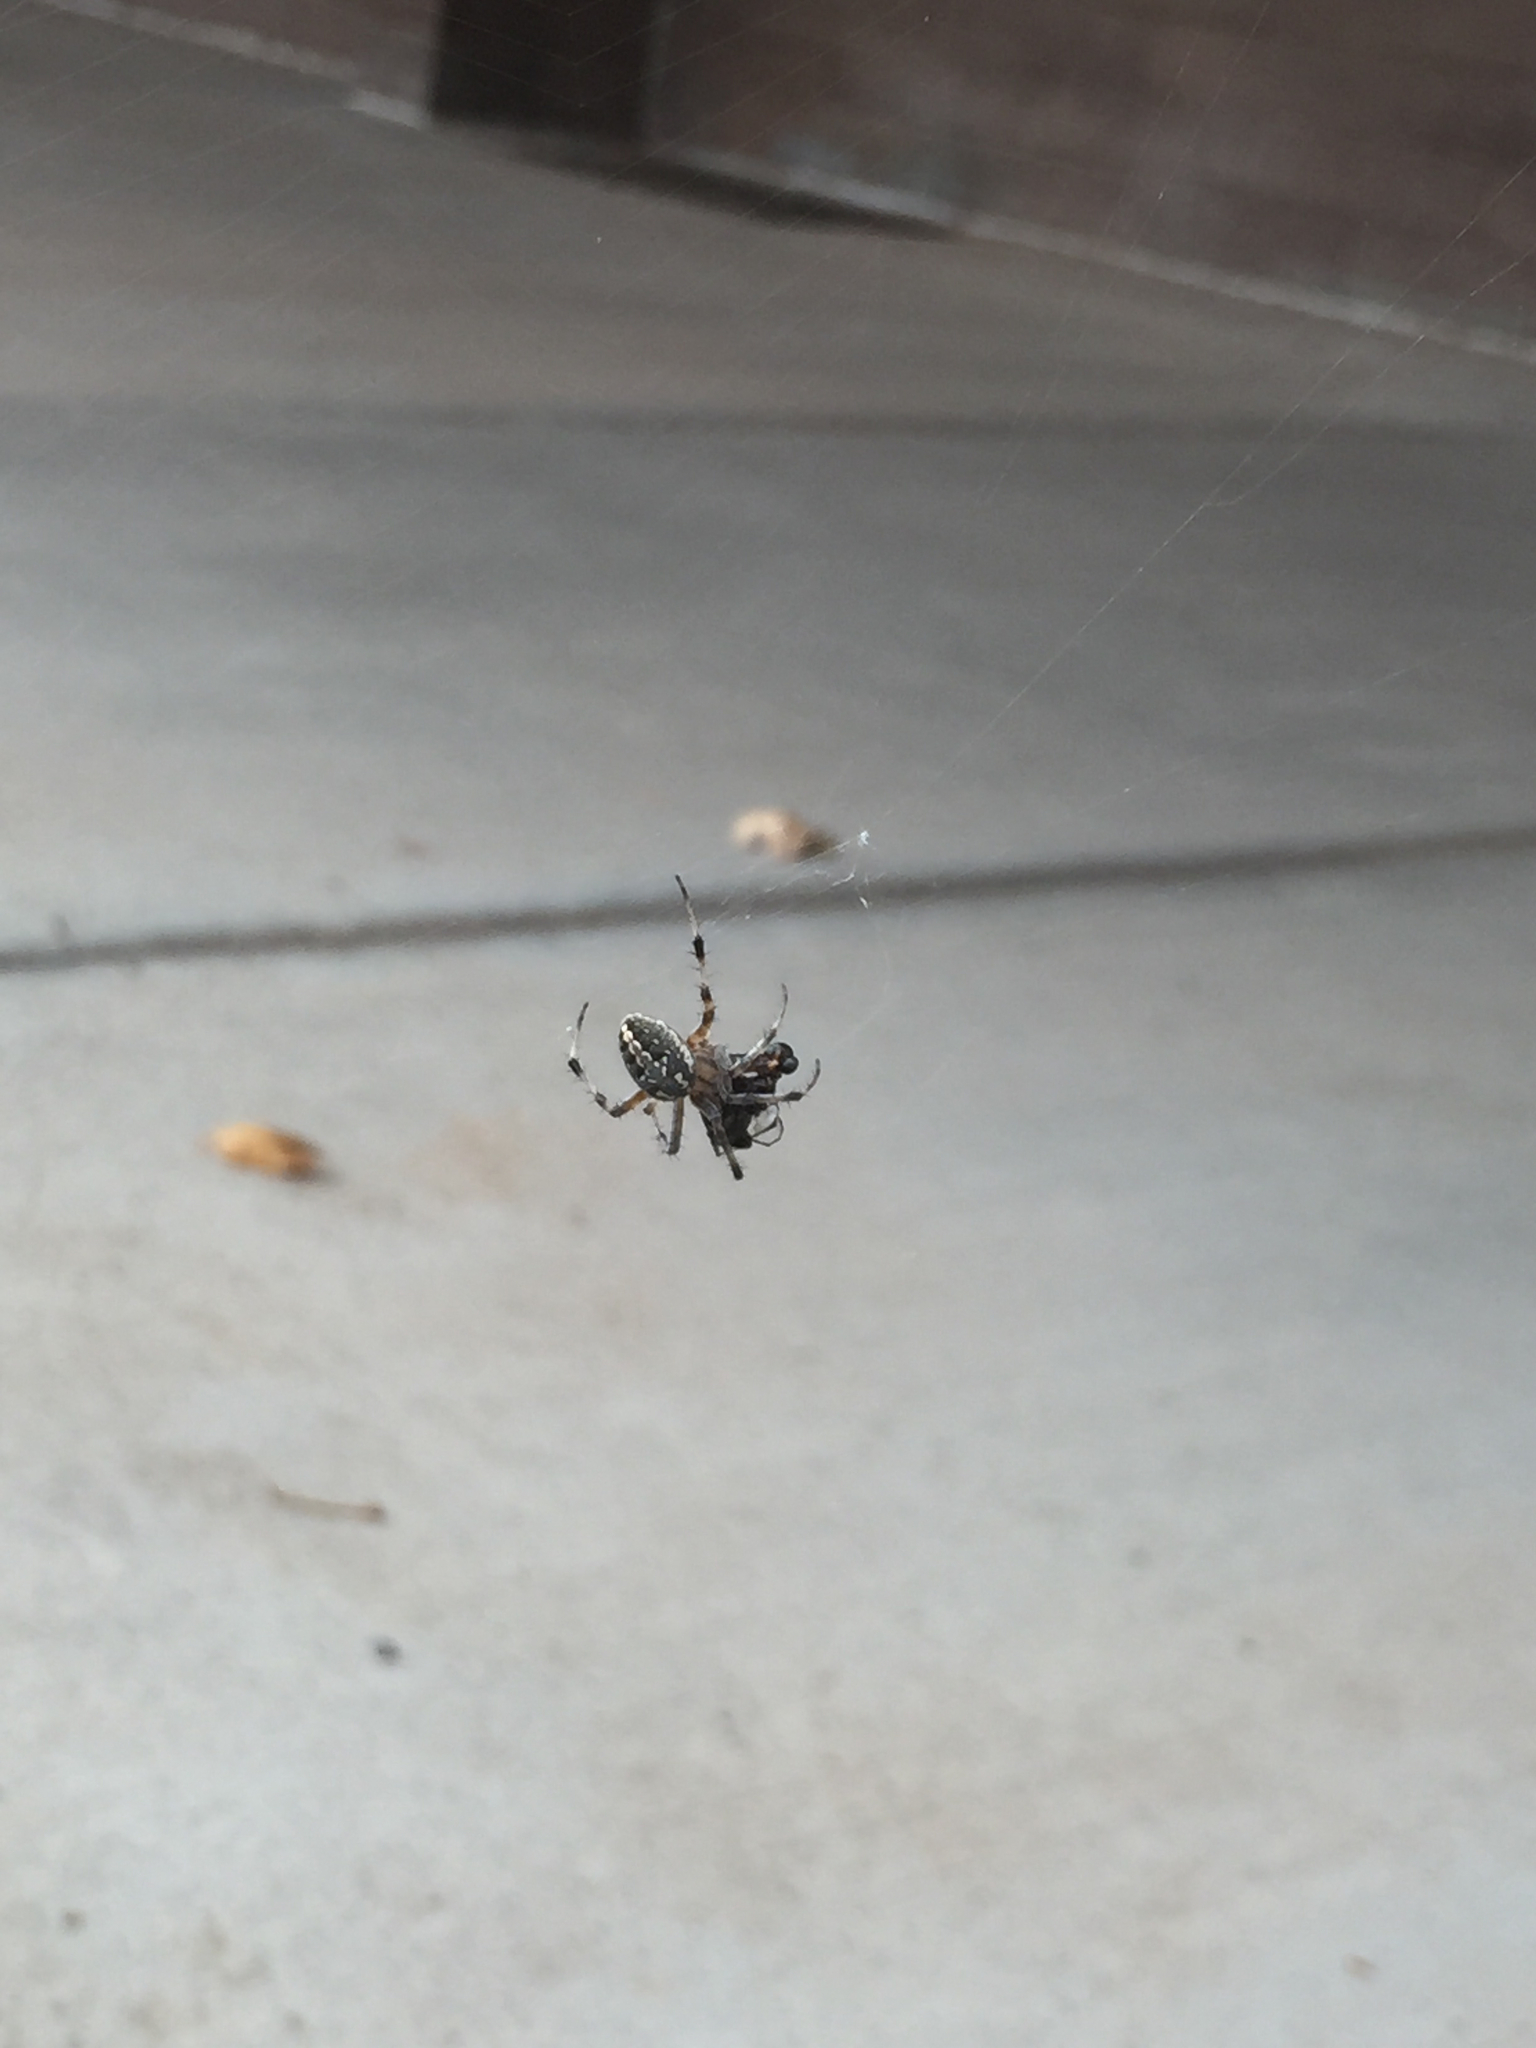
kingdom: Animalia
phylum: Arthropoda
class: Arachnida
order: Araneae
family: Araneidae
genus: Neoscona
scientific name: Neoscona oaxacensis
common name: Orb weavers
